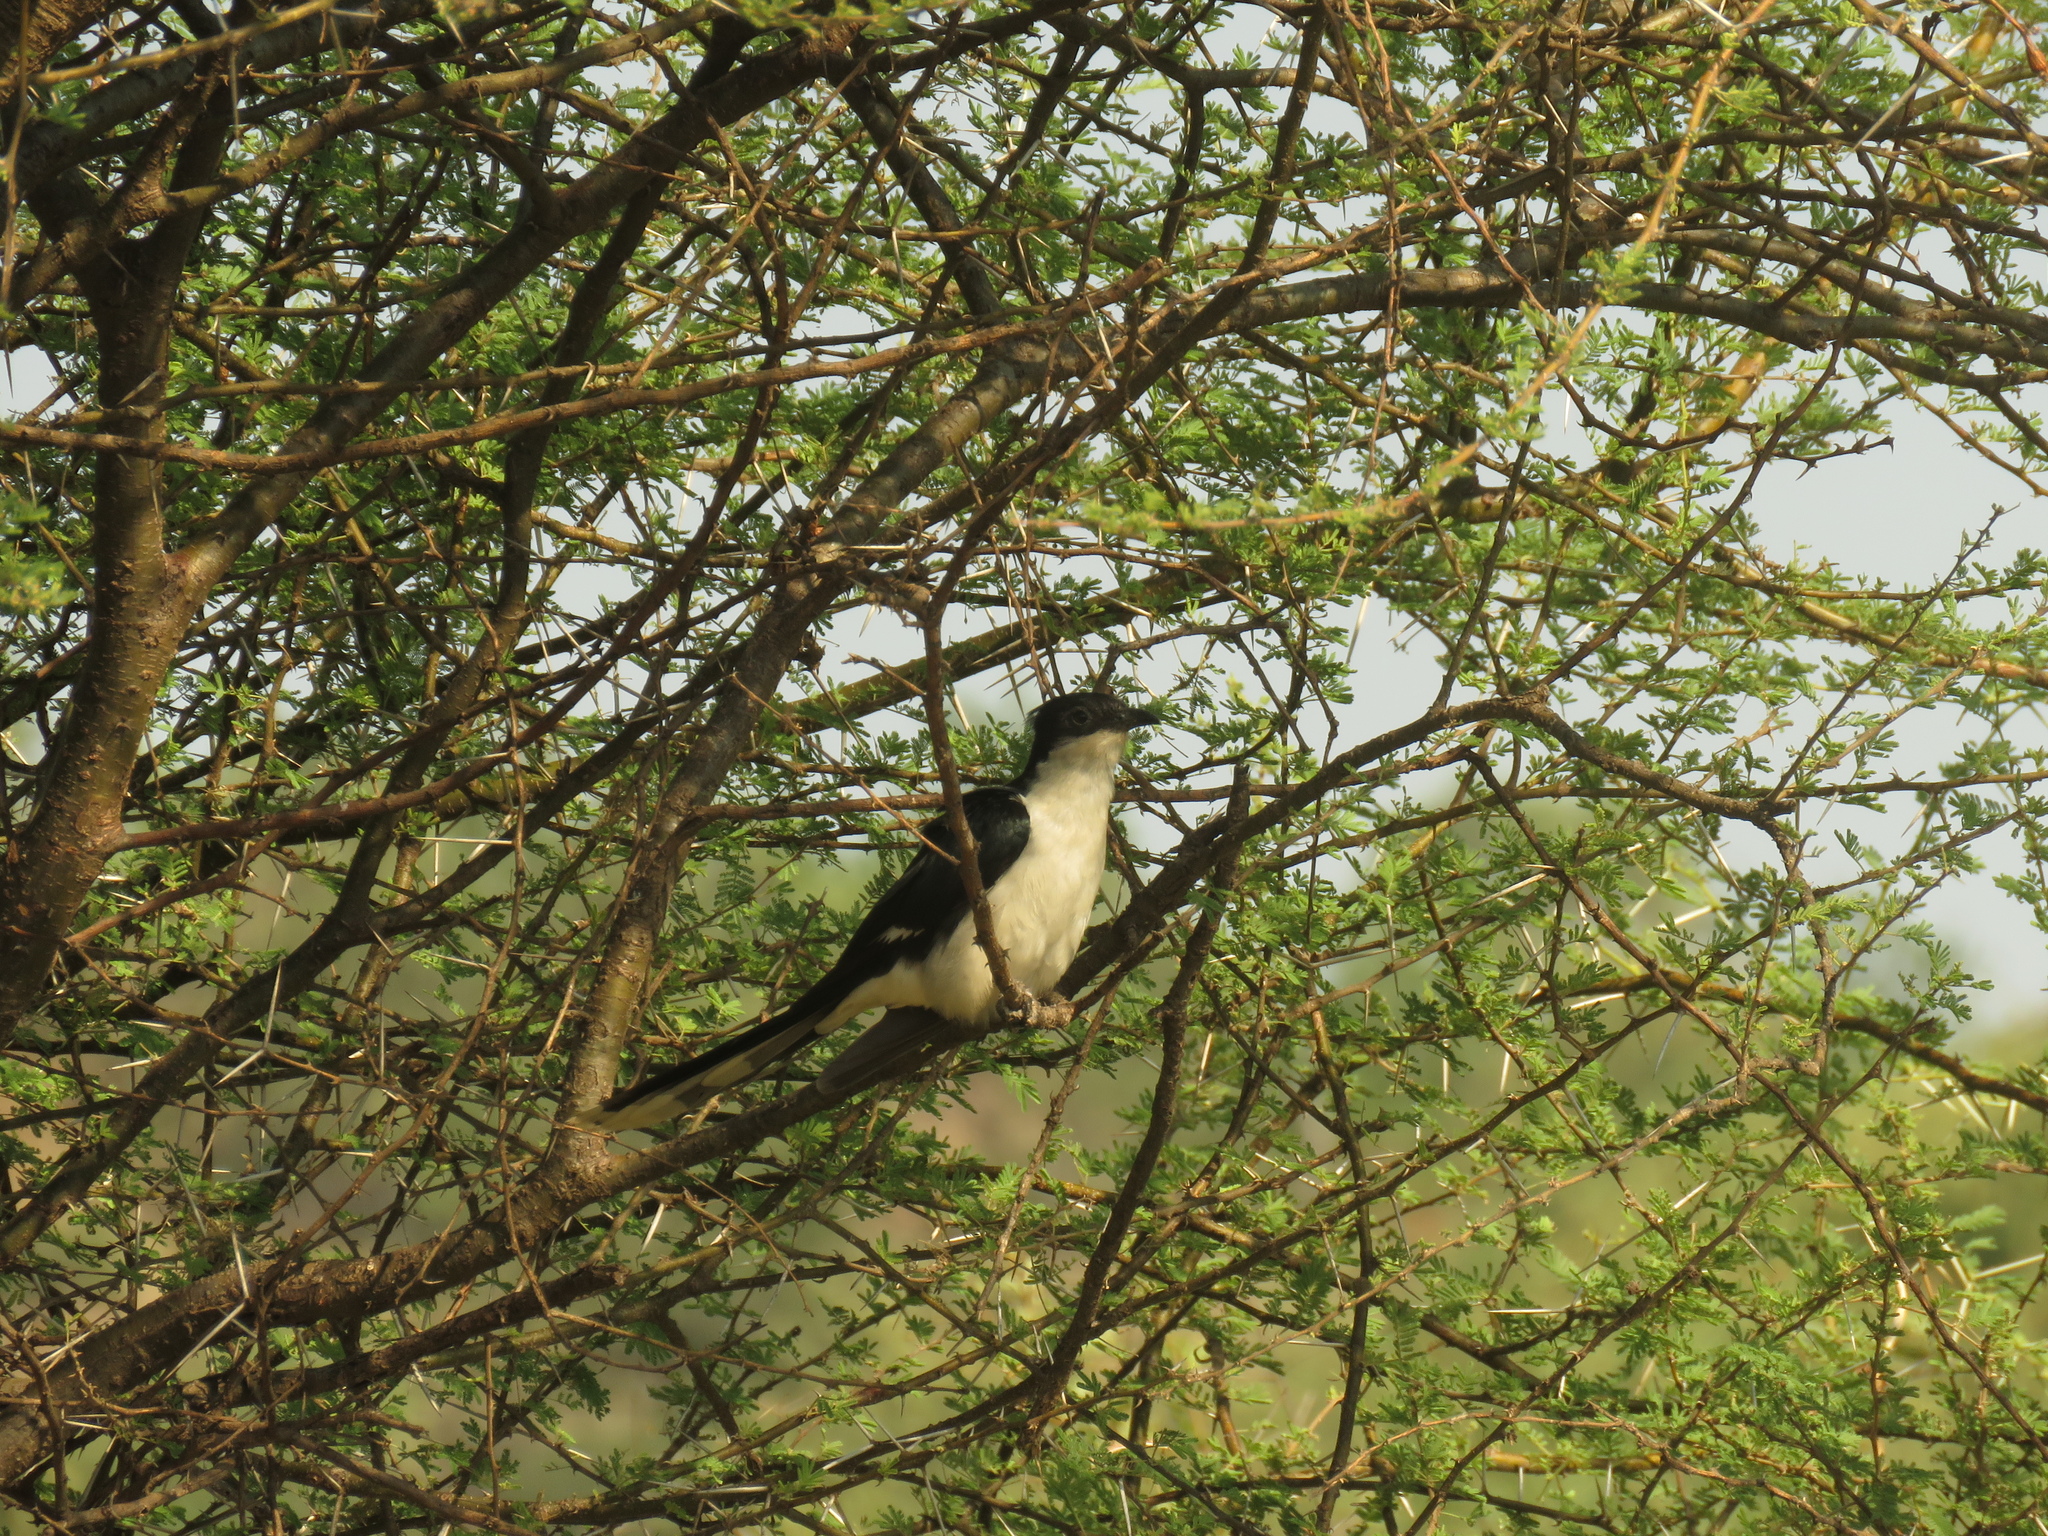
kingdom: Animalia
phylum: Chordata
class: Aves
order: Cuculiformes
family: Cuculidae
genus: Clamator
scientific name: Clamator jacobinus
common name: Jacobin cuckoo
